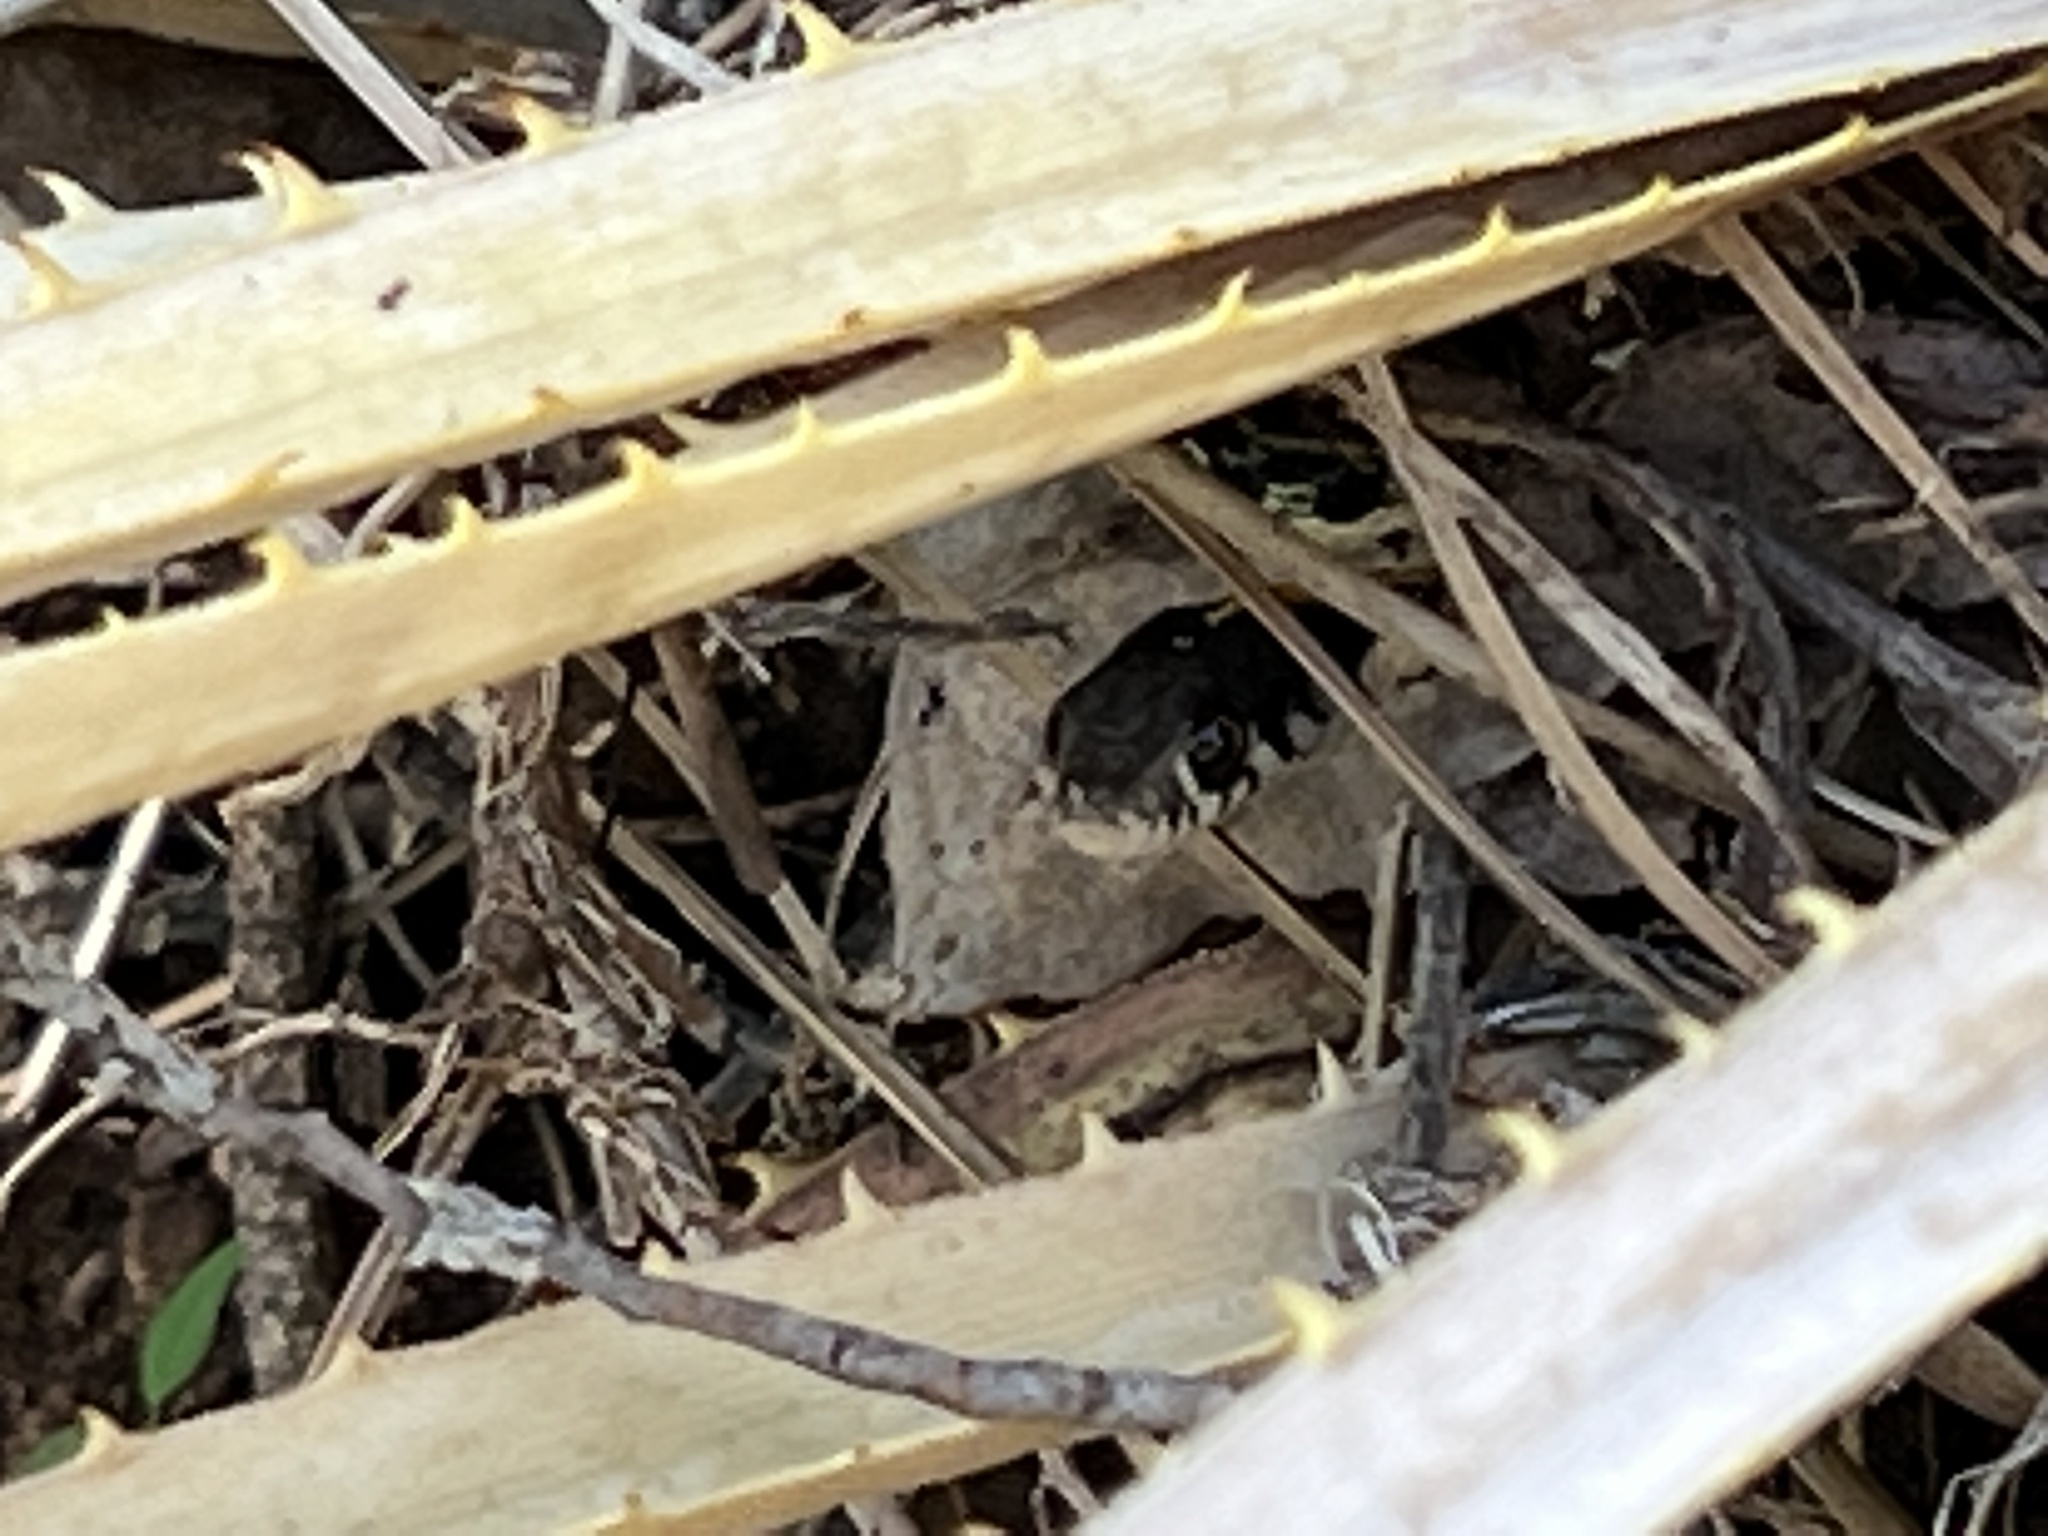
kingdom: Animalia
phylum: Chordata
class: Squamata
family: Colubridae
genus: Thamnophis
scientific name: Thamnophis cyrtopsis
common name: Black-necked gartersnake
